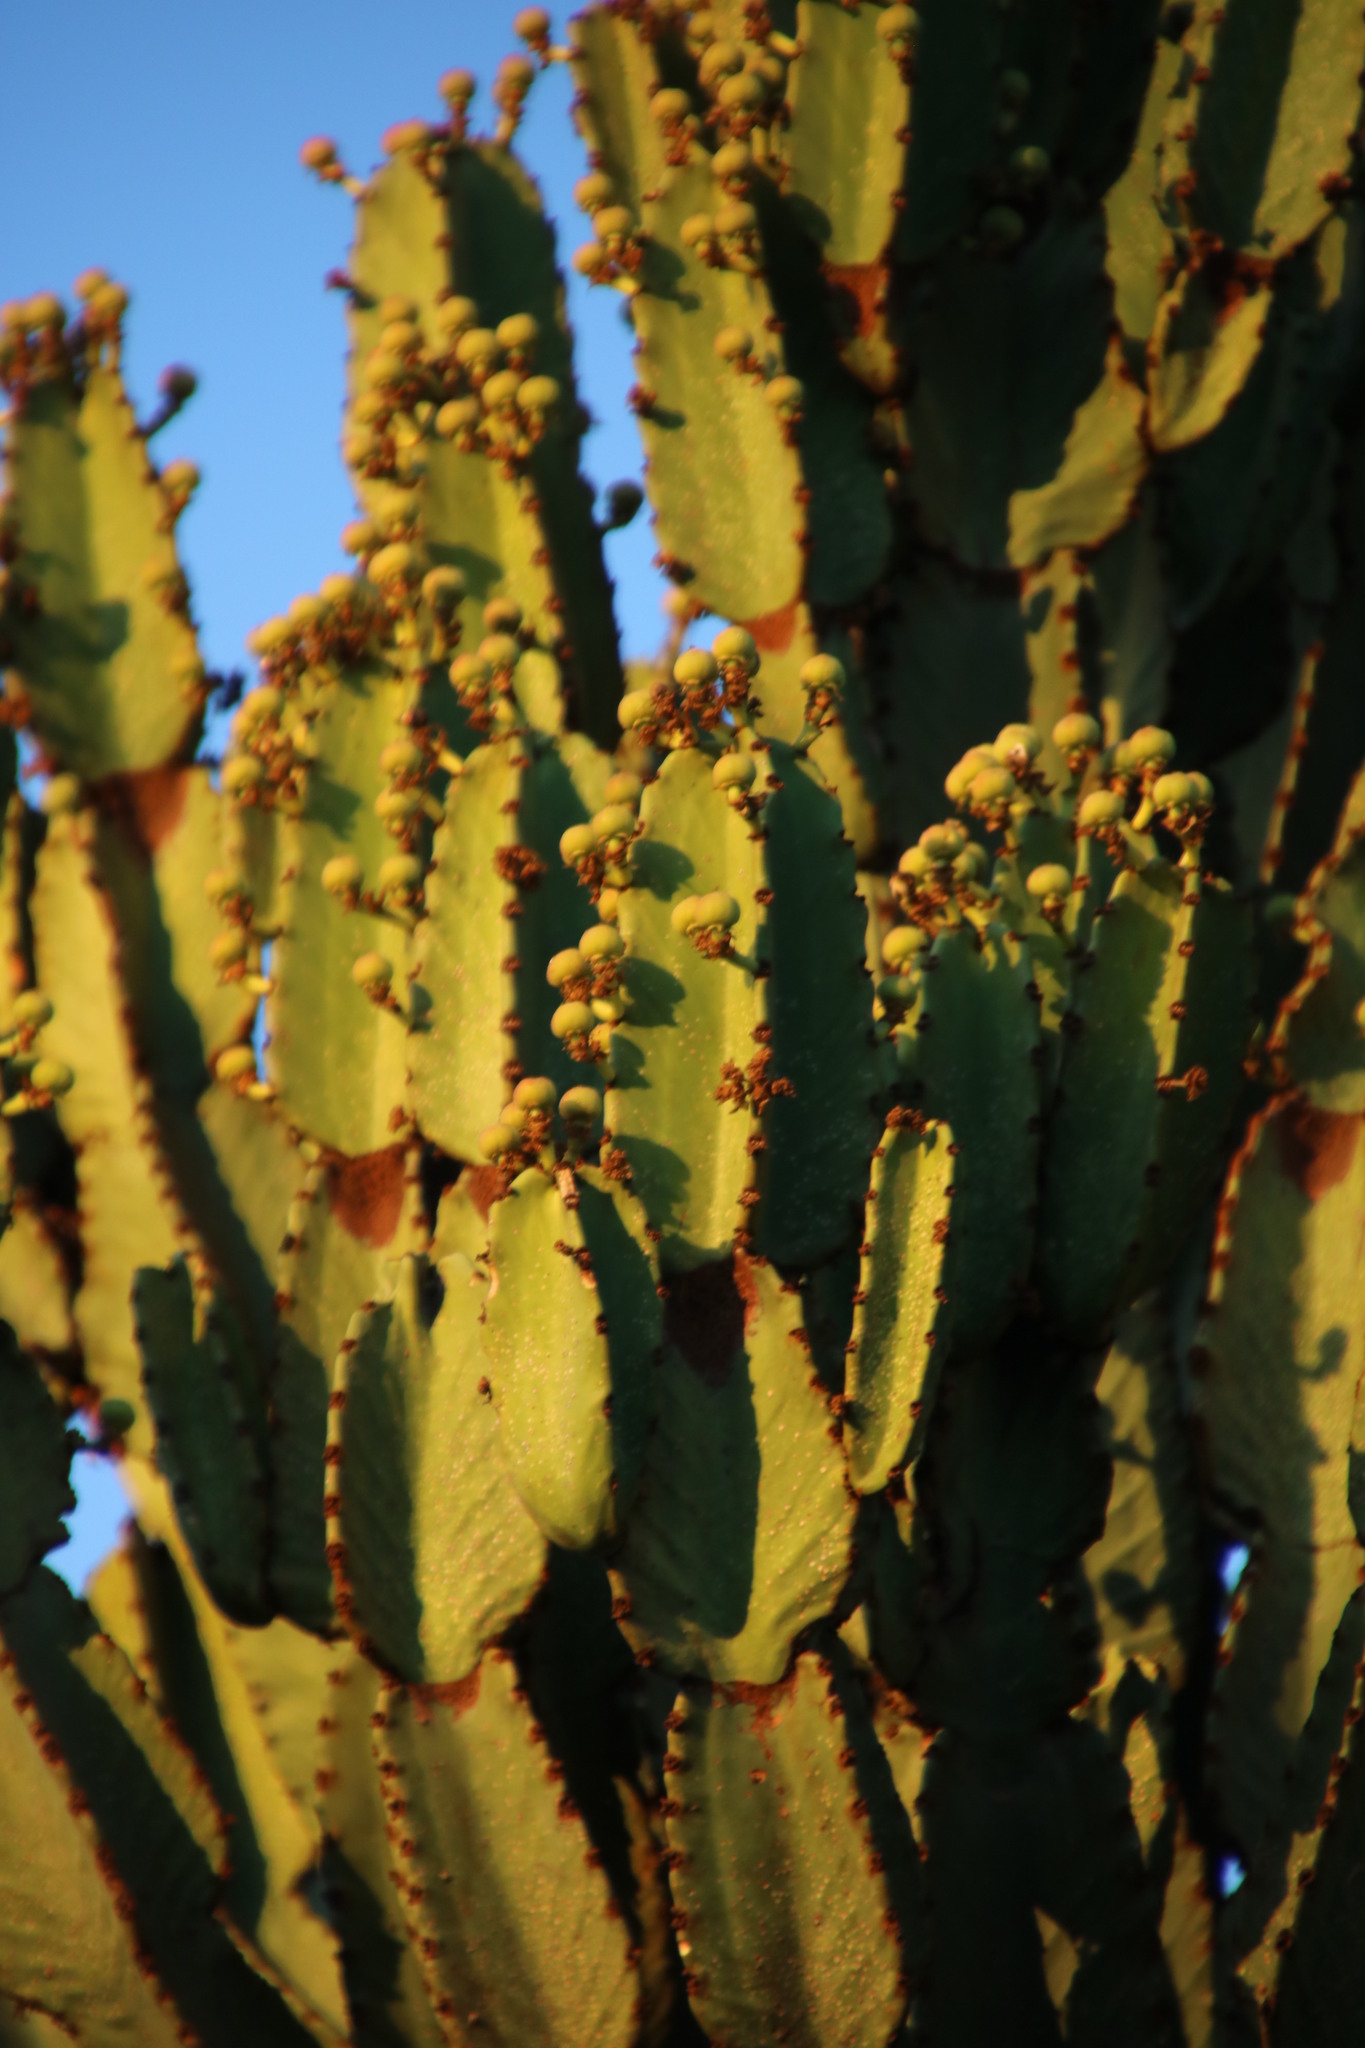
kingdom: Plantae
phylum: Tracheophyta
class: Magnoliopsida
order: Malpighiales
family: Euphorbiaceae
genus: Euphorbia
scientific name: Euphorbia ingens
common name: Cactus spurge
